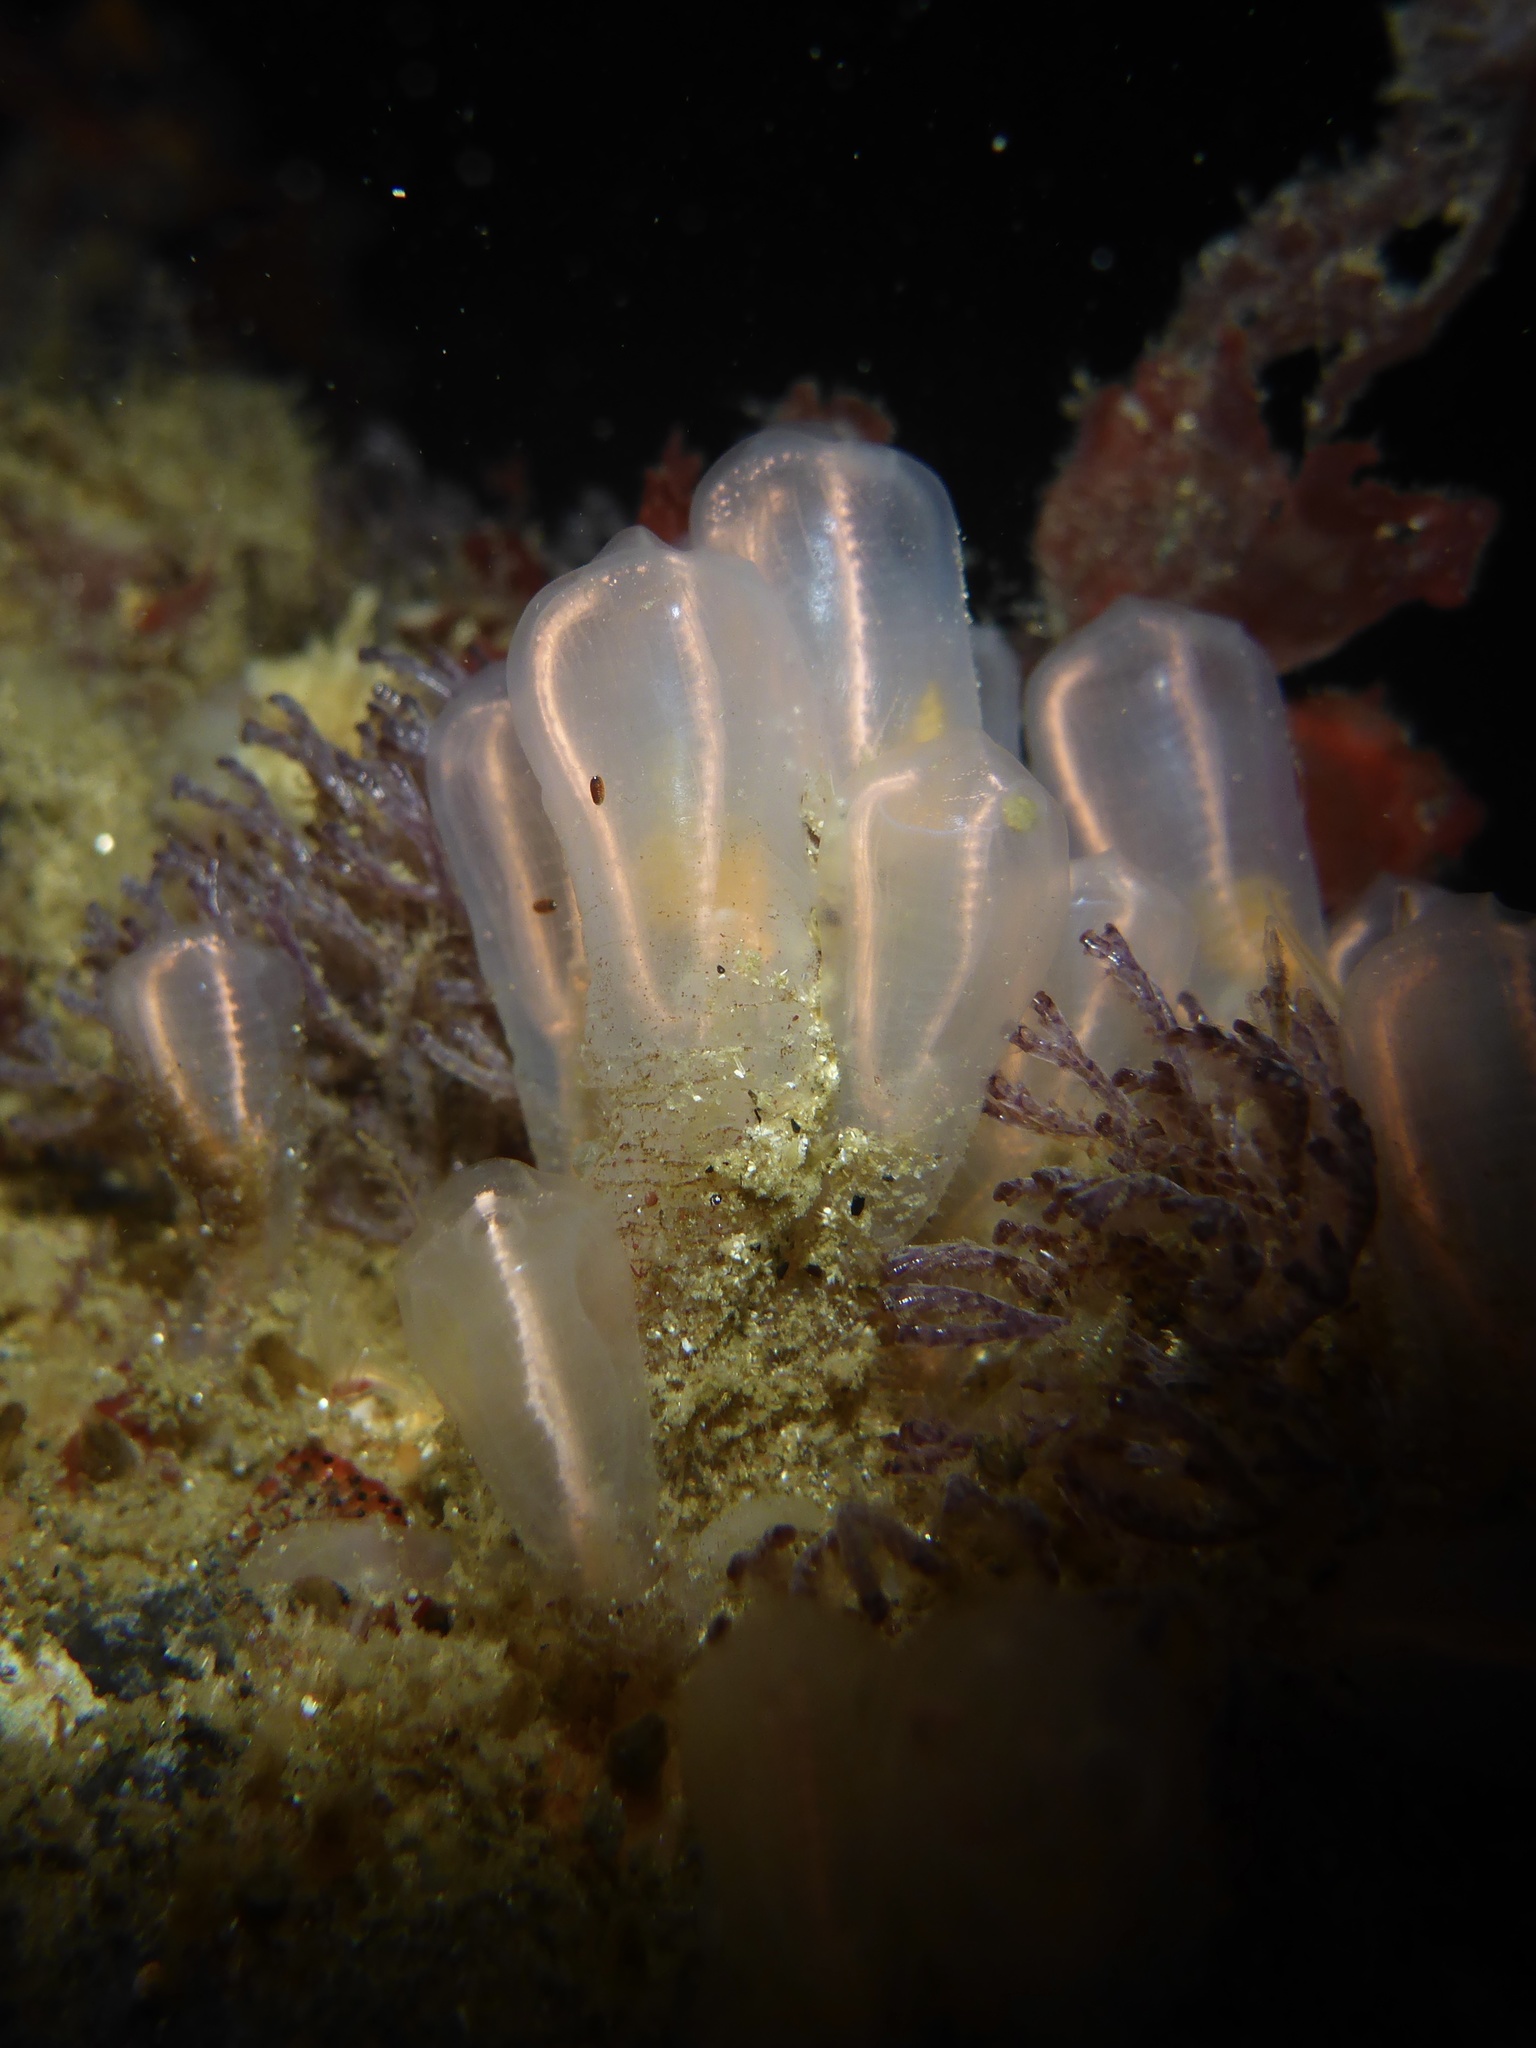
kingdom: Animalia
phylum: Chordata
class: Ascidiacea
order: Aplousobranchia
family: Clavelinidae
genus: Clavelina
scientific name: Clavelina huntsmani
